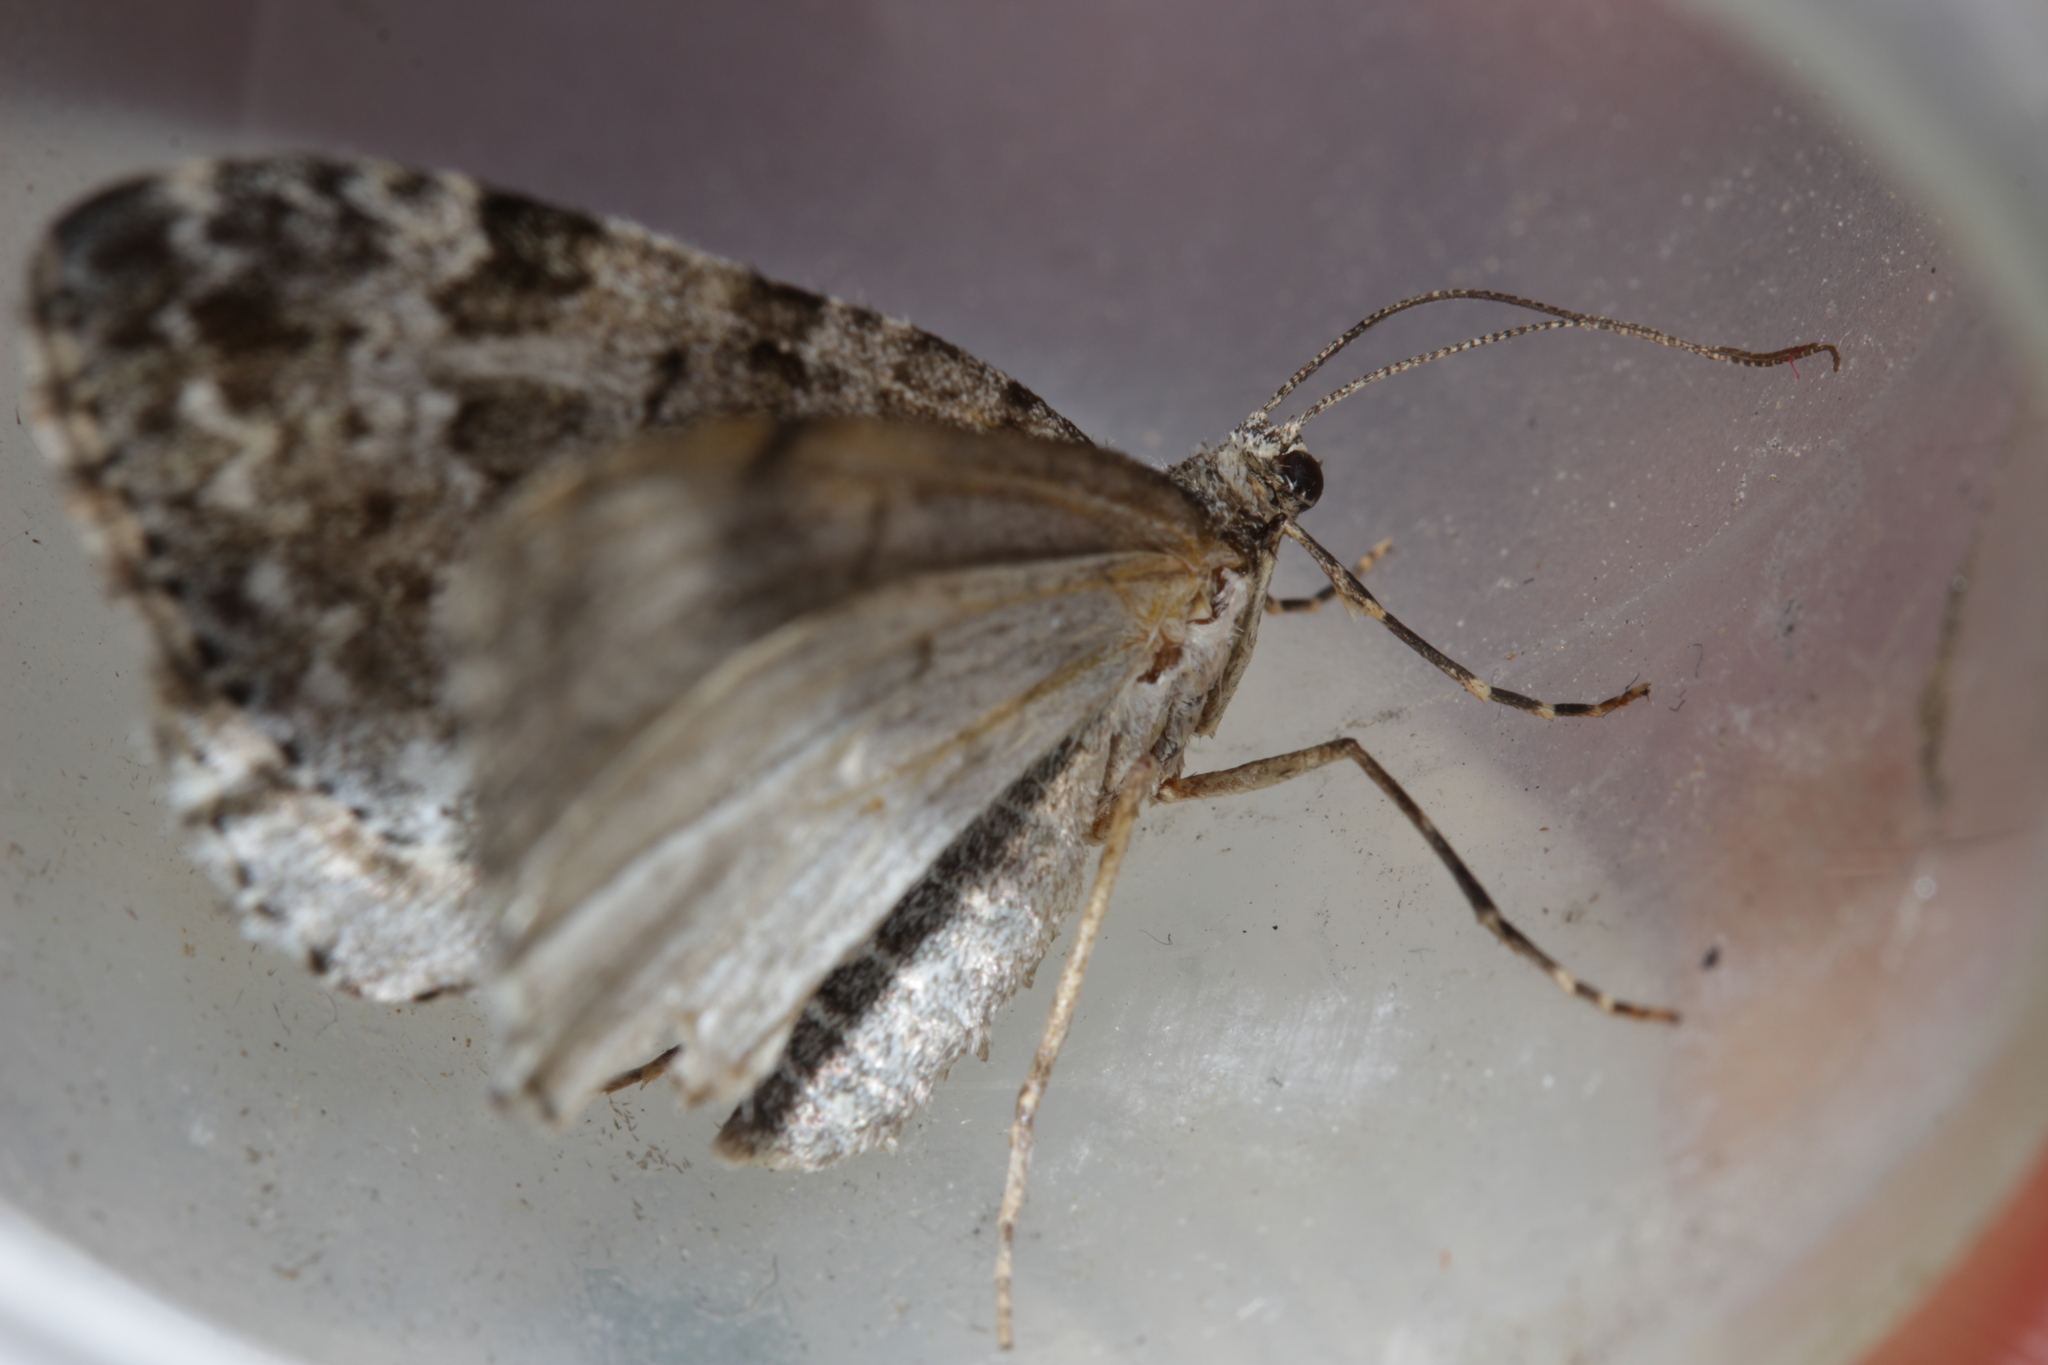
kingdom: Animalia
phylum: Arthropoda
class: Insecta
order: Lepidoptera
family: Geometridae
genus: Entephria
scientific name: Entephria caesiata
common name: Grey mountain moth
